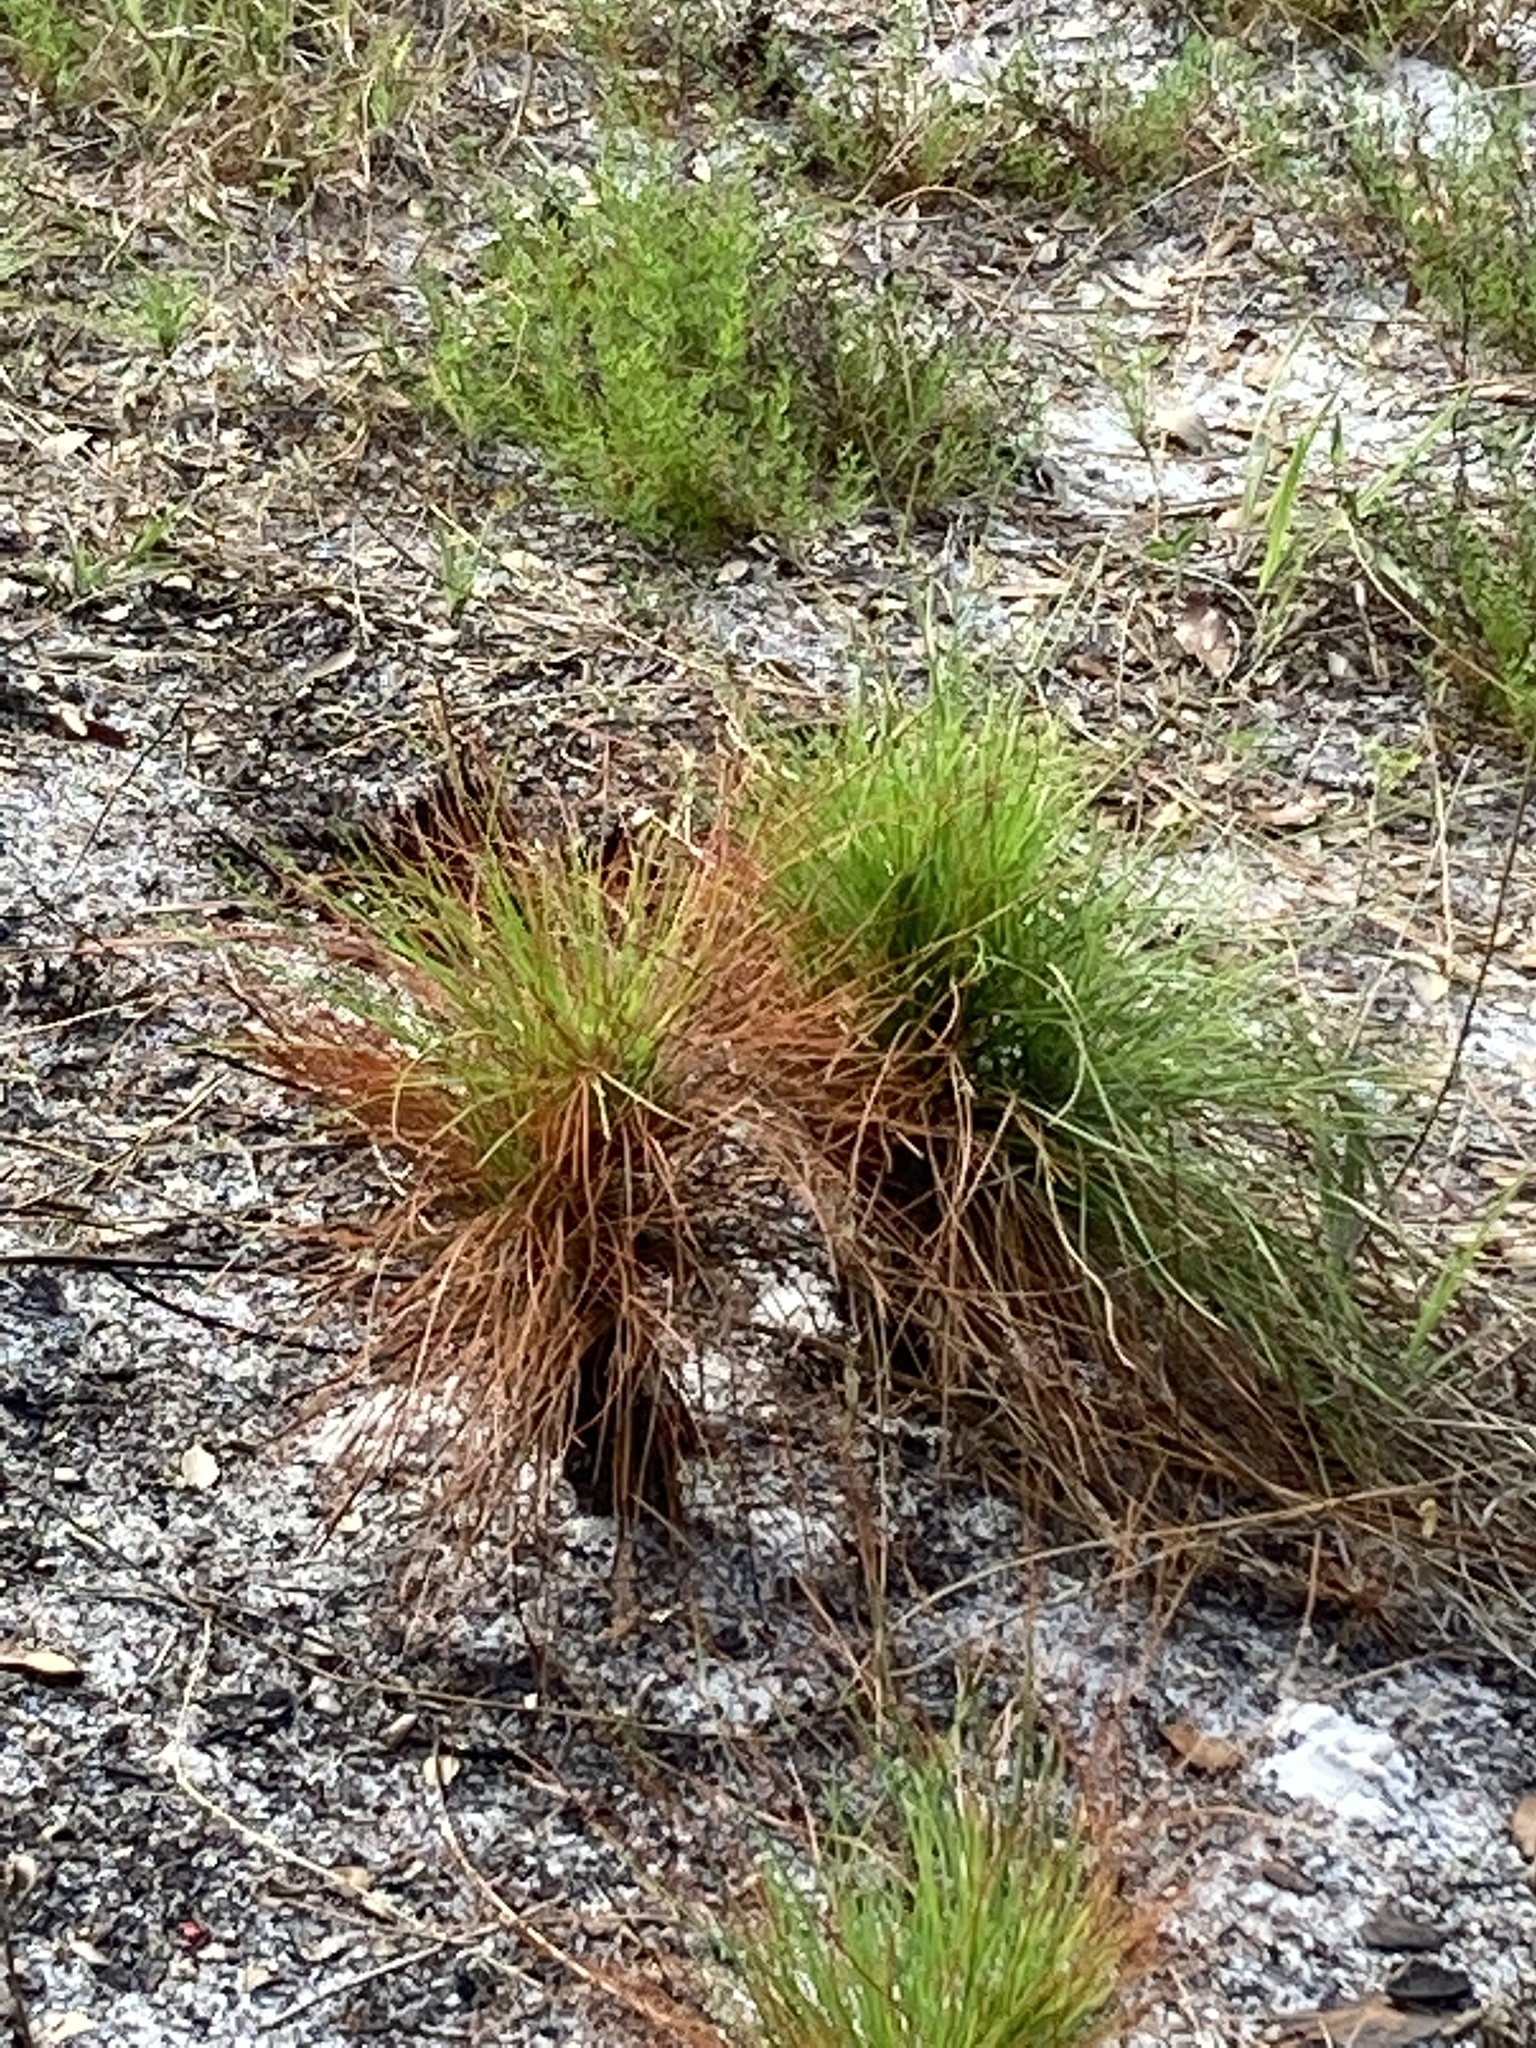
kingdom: Plantae
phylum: Tracheophyta
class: Pinopsida
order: Pinales
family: Pinaceae
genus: Pinus
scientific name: Pinus elliottii
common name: Slash pine
